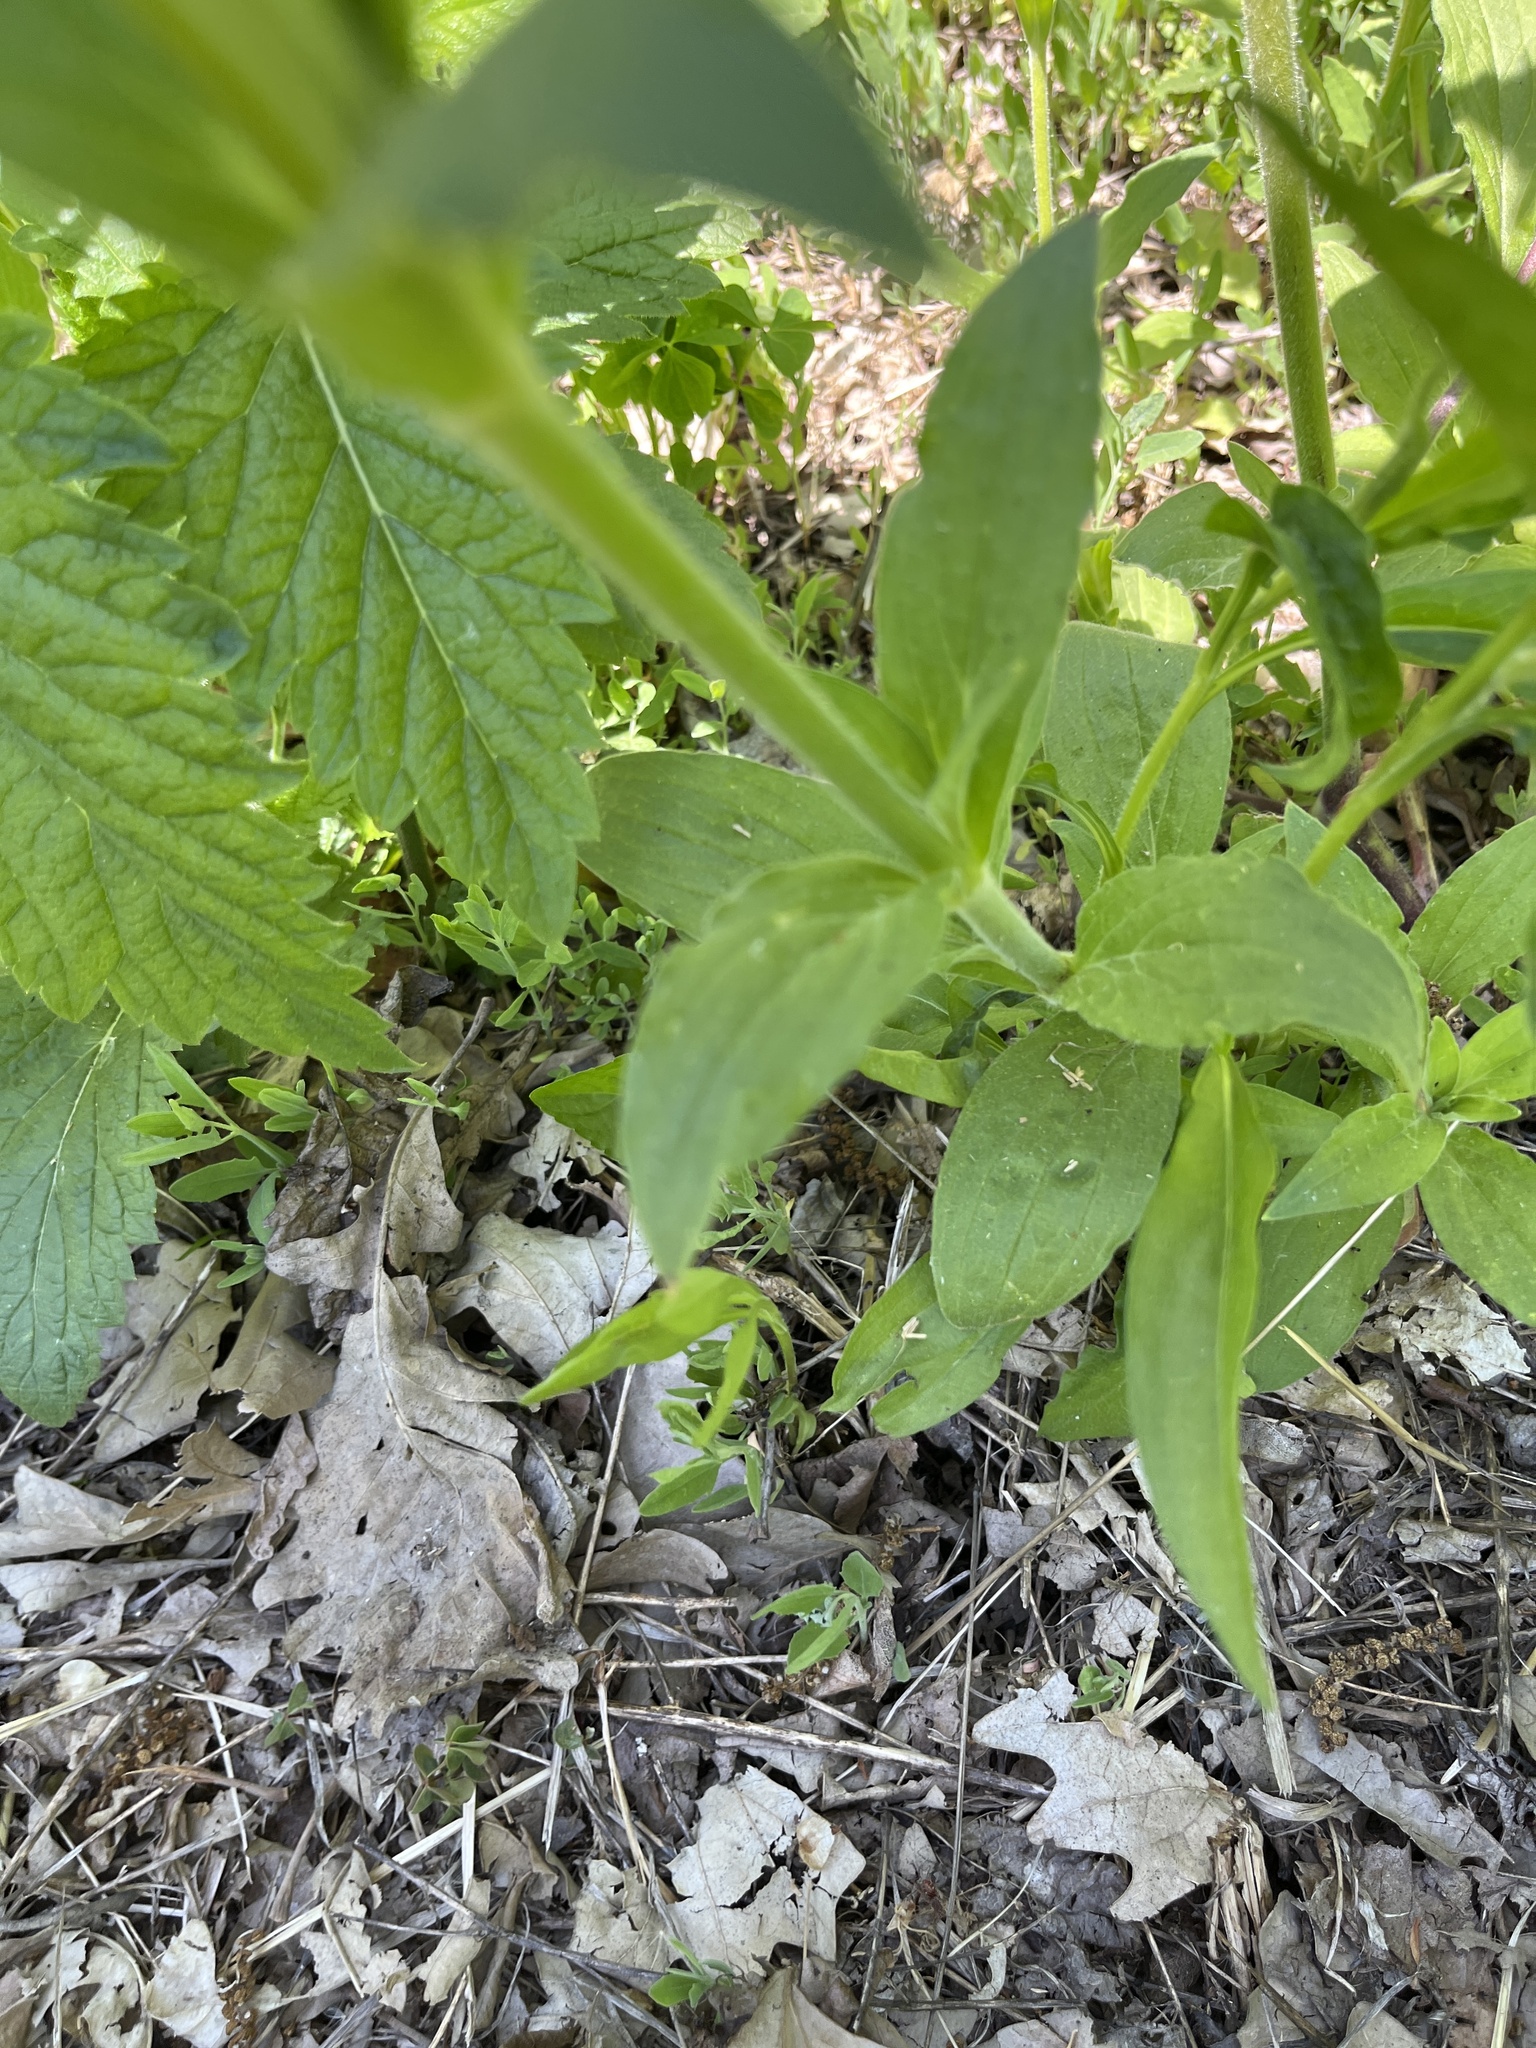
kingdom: Plantae
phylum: Tracheophyta
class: Magnoliopsida
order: Caryophyllales
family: Caryophyllaceae
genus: Silene
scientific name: Silene latifolia
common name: White campion
